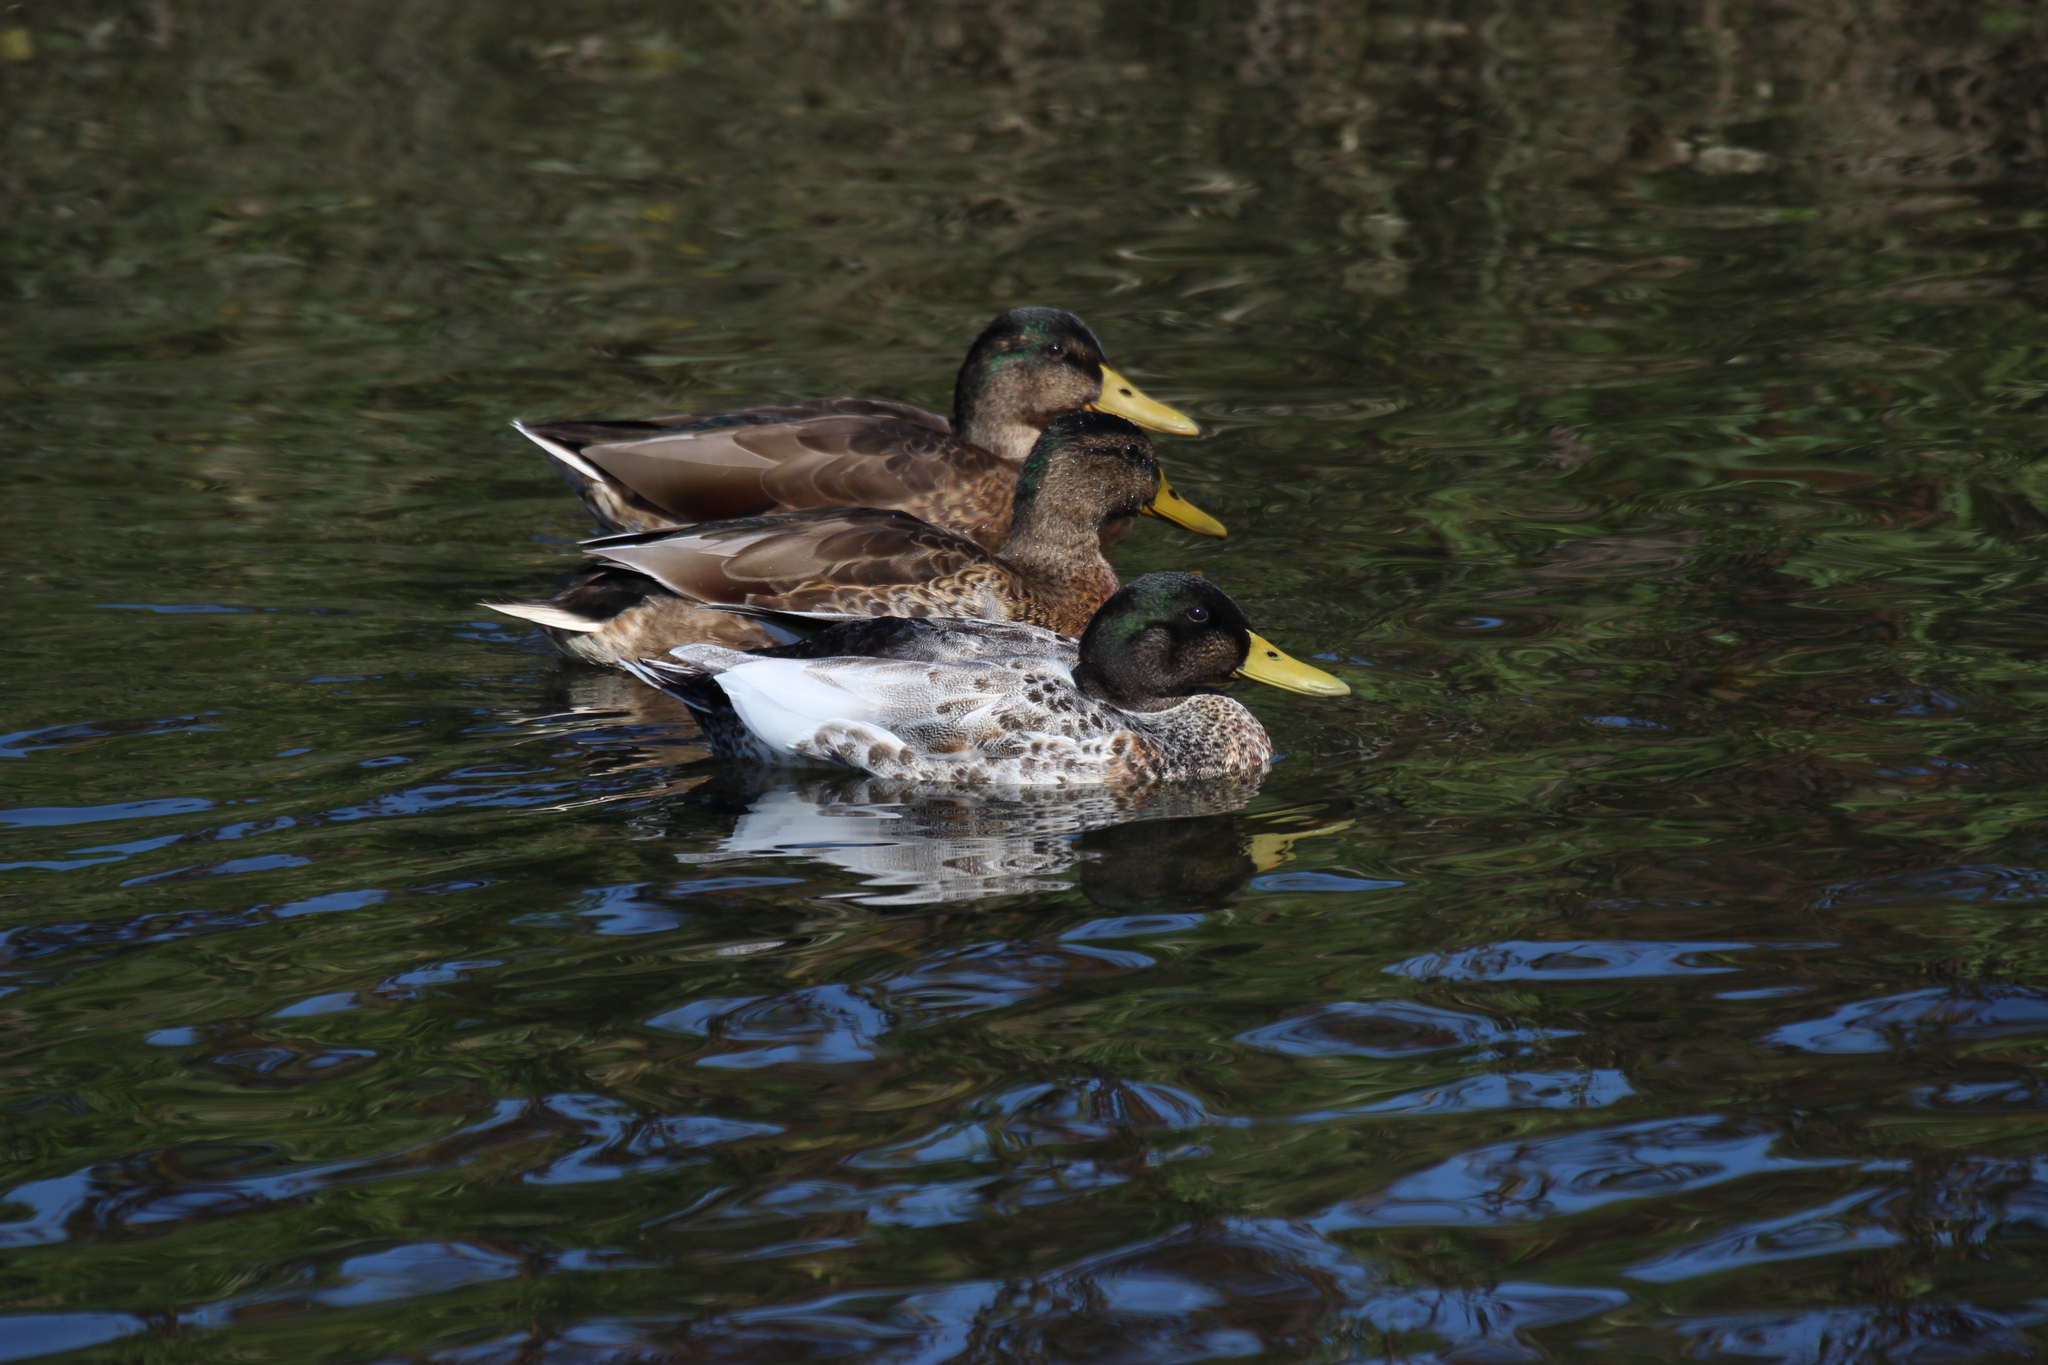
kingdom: Animalia
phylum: Chordata
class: Aves
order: Anseriformes
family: Anatidae
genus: Anas
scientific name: Anas platyrhynchos
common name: Mallard
